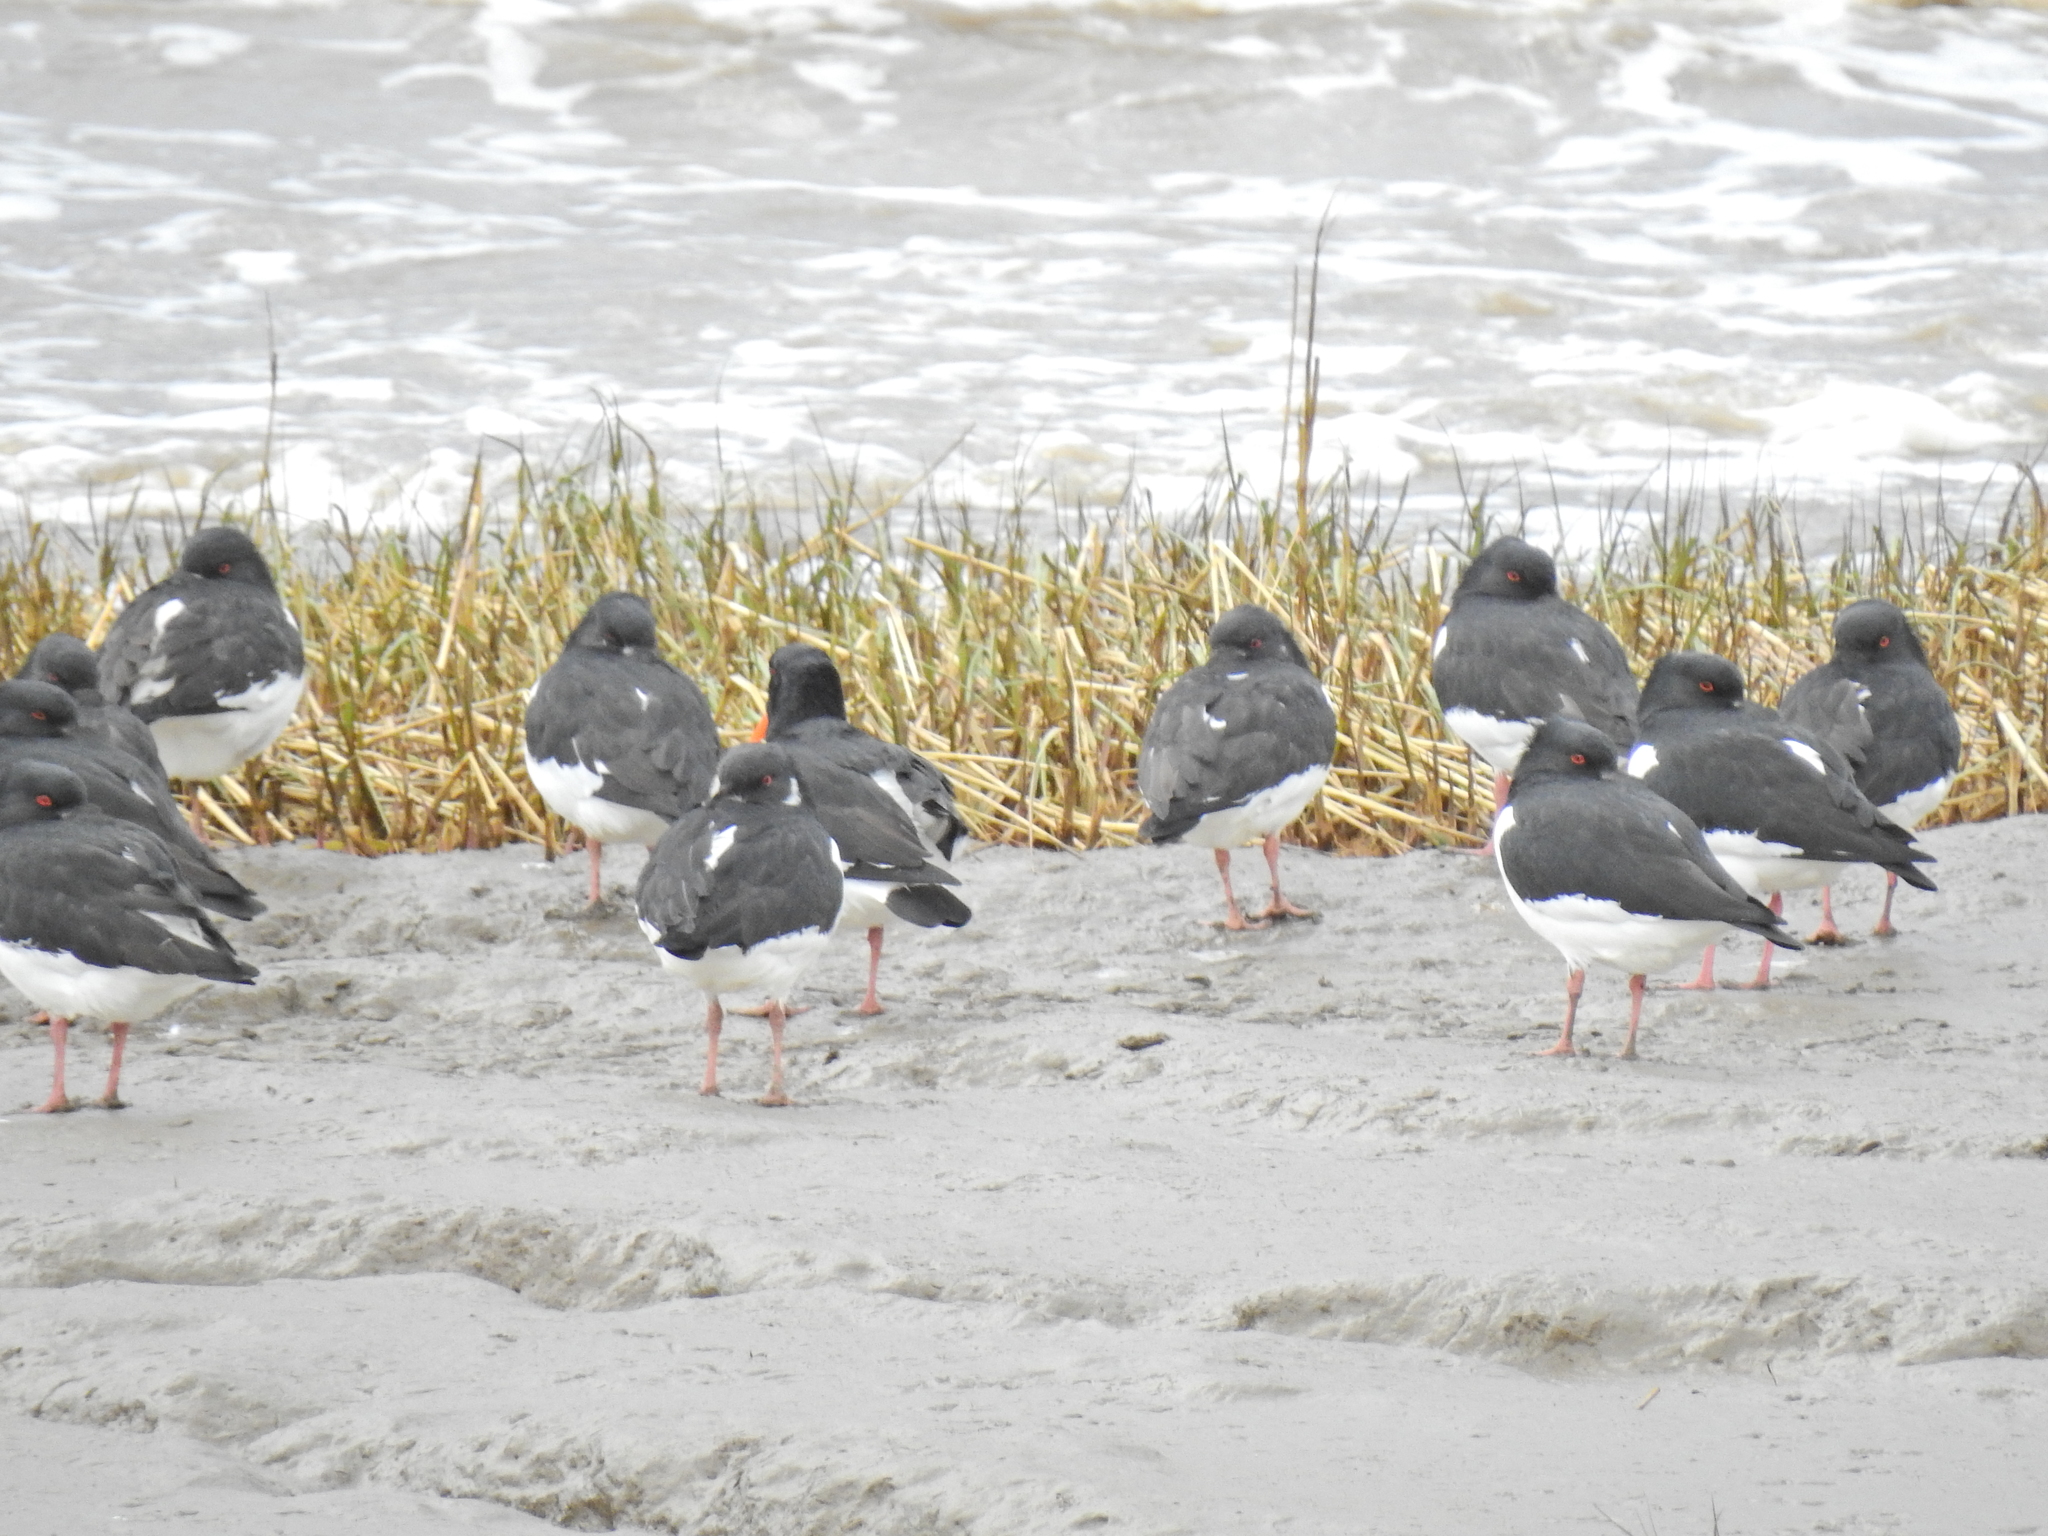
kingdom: Animalia
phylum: Chordata
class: Aves
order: Charadriiformes
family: Haematopodidae
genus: Haematopus
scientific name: Haematopus ostralegus
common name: Eurasian oystercatcher
